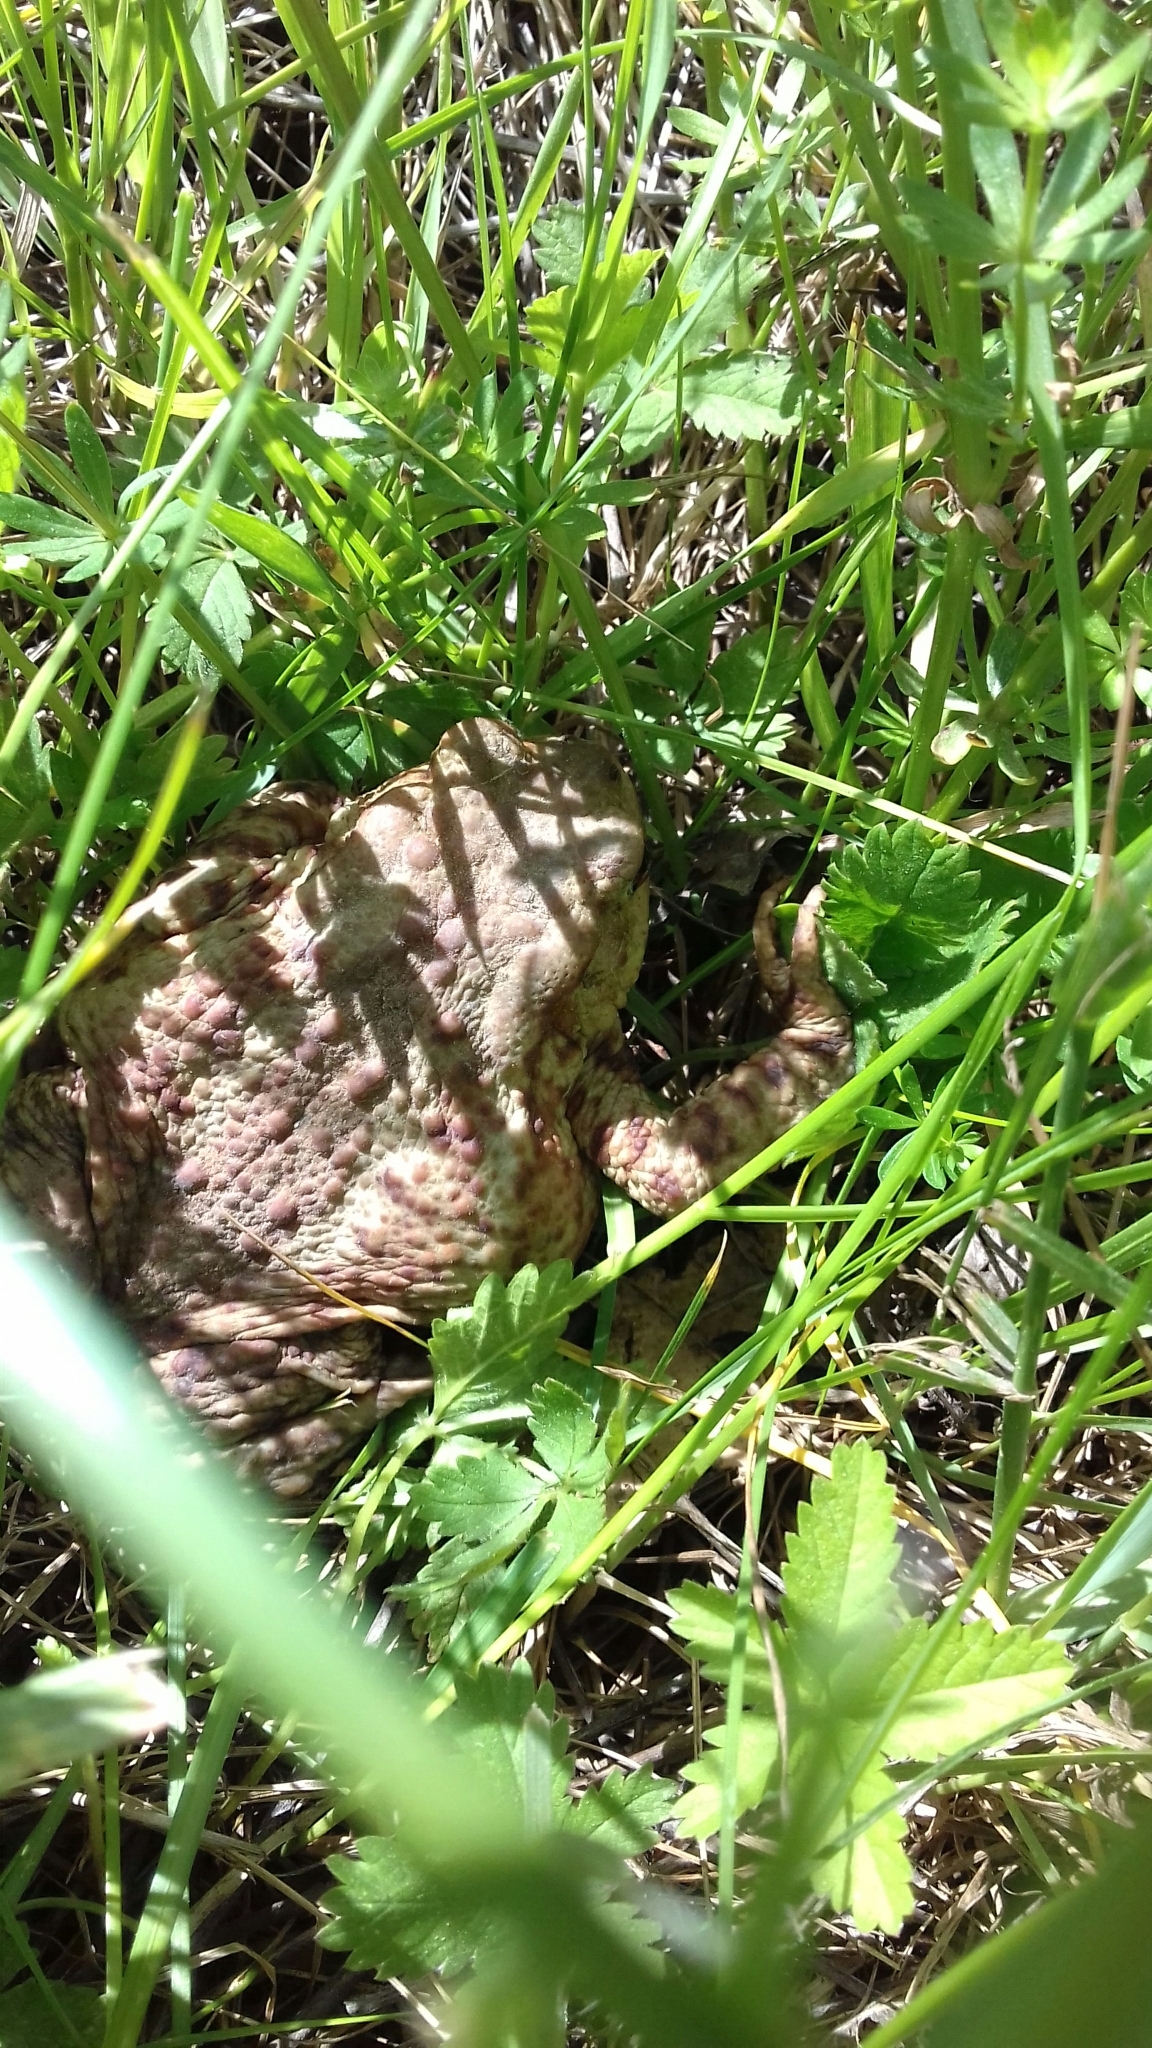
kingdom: Animalia
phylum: Chordata
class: Amphibia
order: Anura
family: Bufonidae
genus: Bufo
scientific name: Bufo bufo
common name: Common toad
